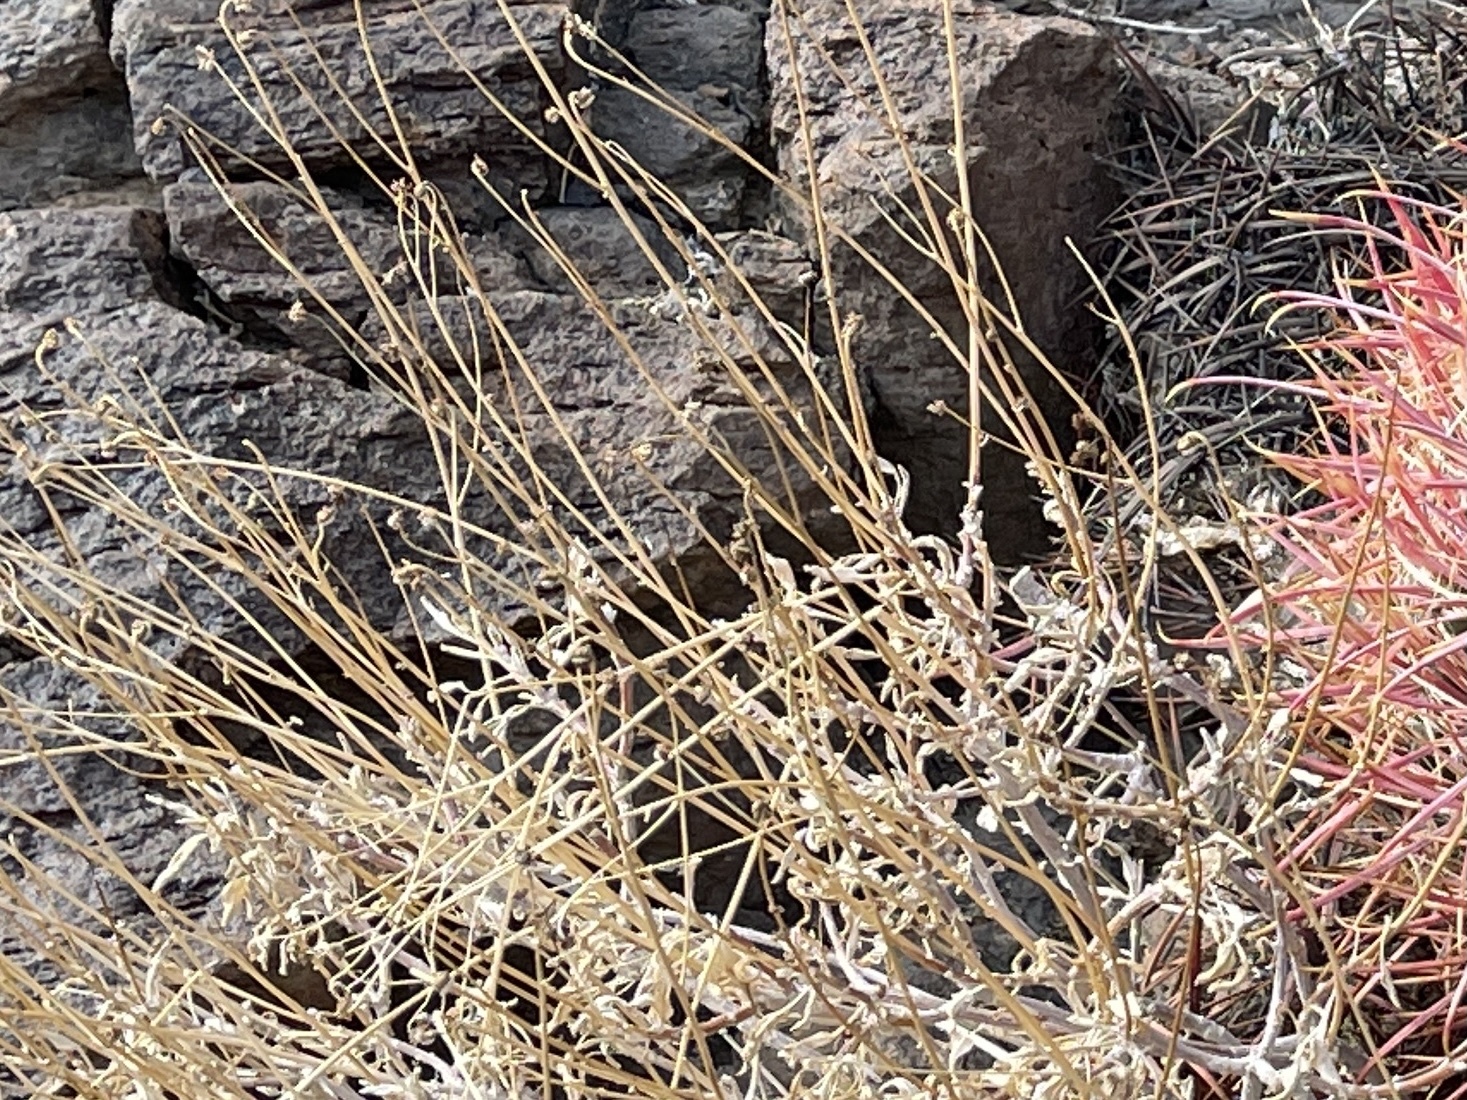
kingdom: Plantae
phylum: Tracheophyta
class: Magnoliopsida
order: Caryophyllales
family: Cactaceae
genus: Ferocactus
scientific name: Ferocactus cylindraceus
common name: California barrel cactus
